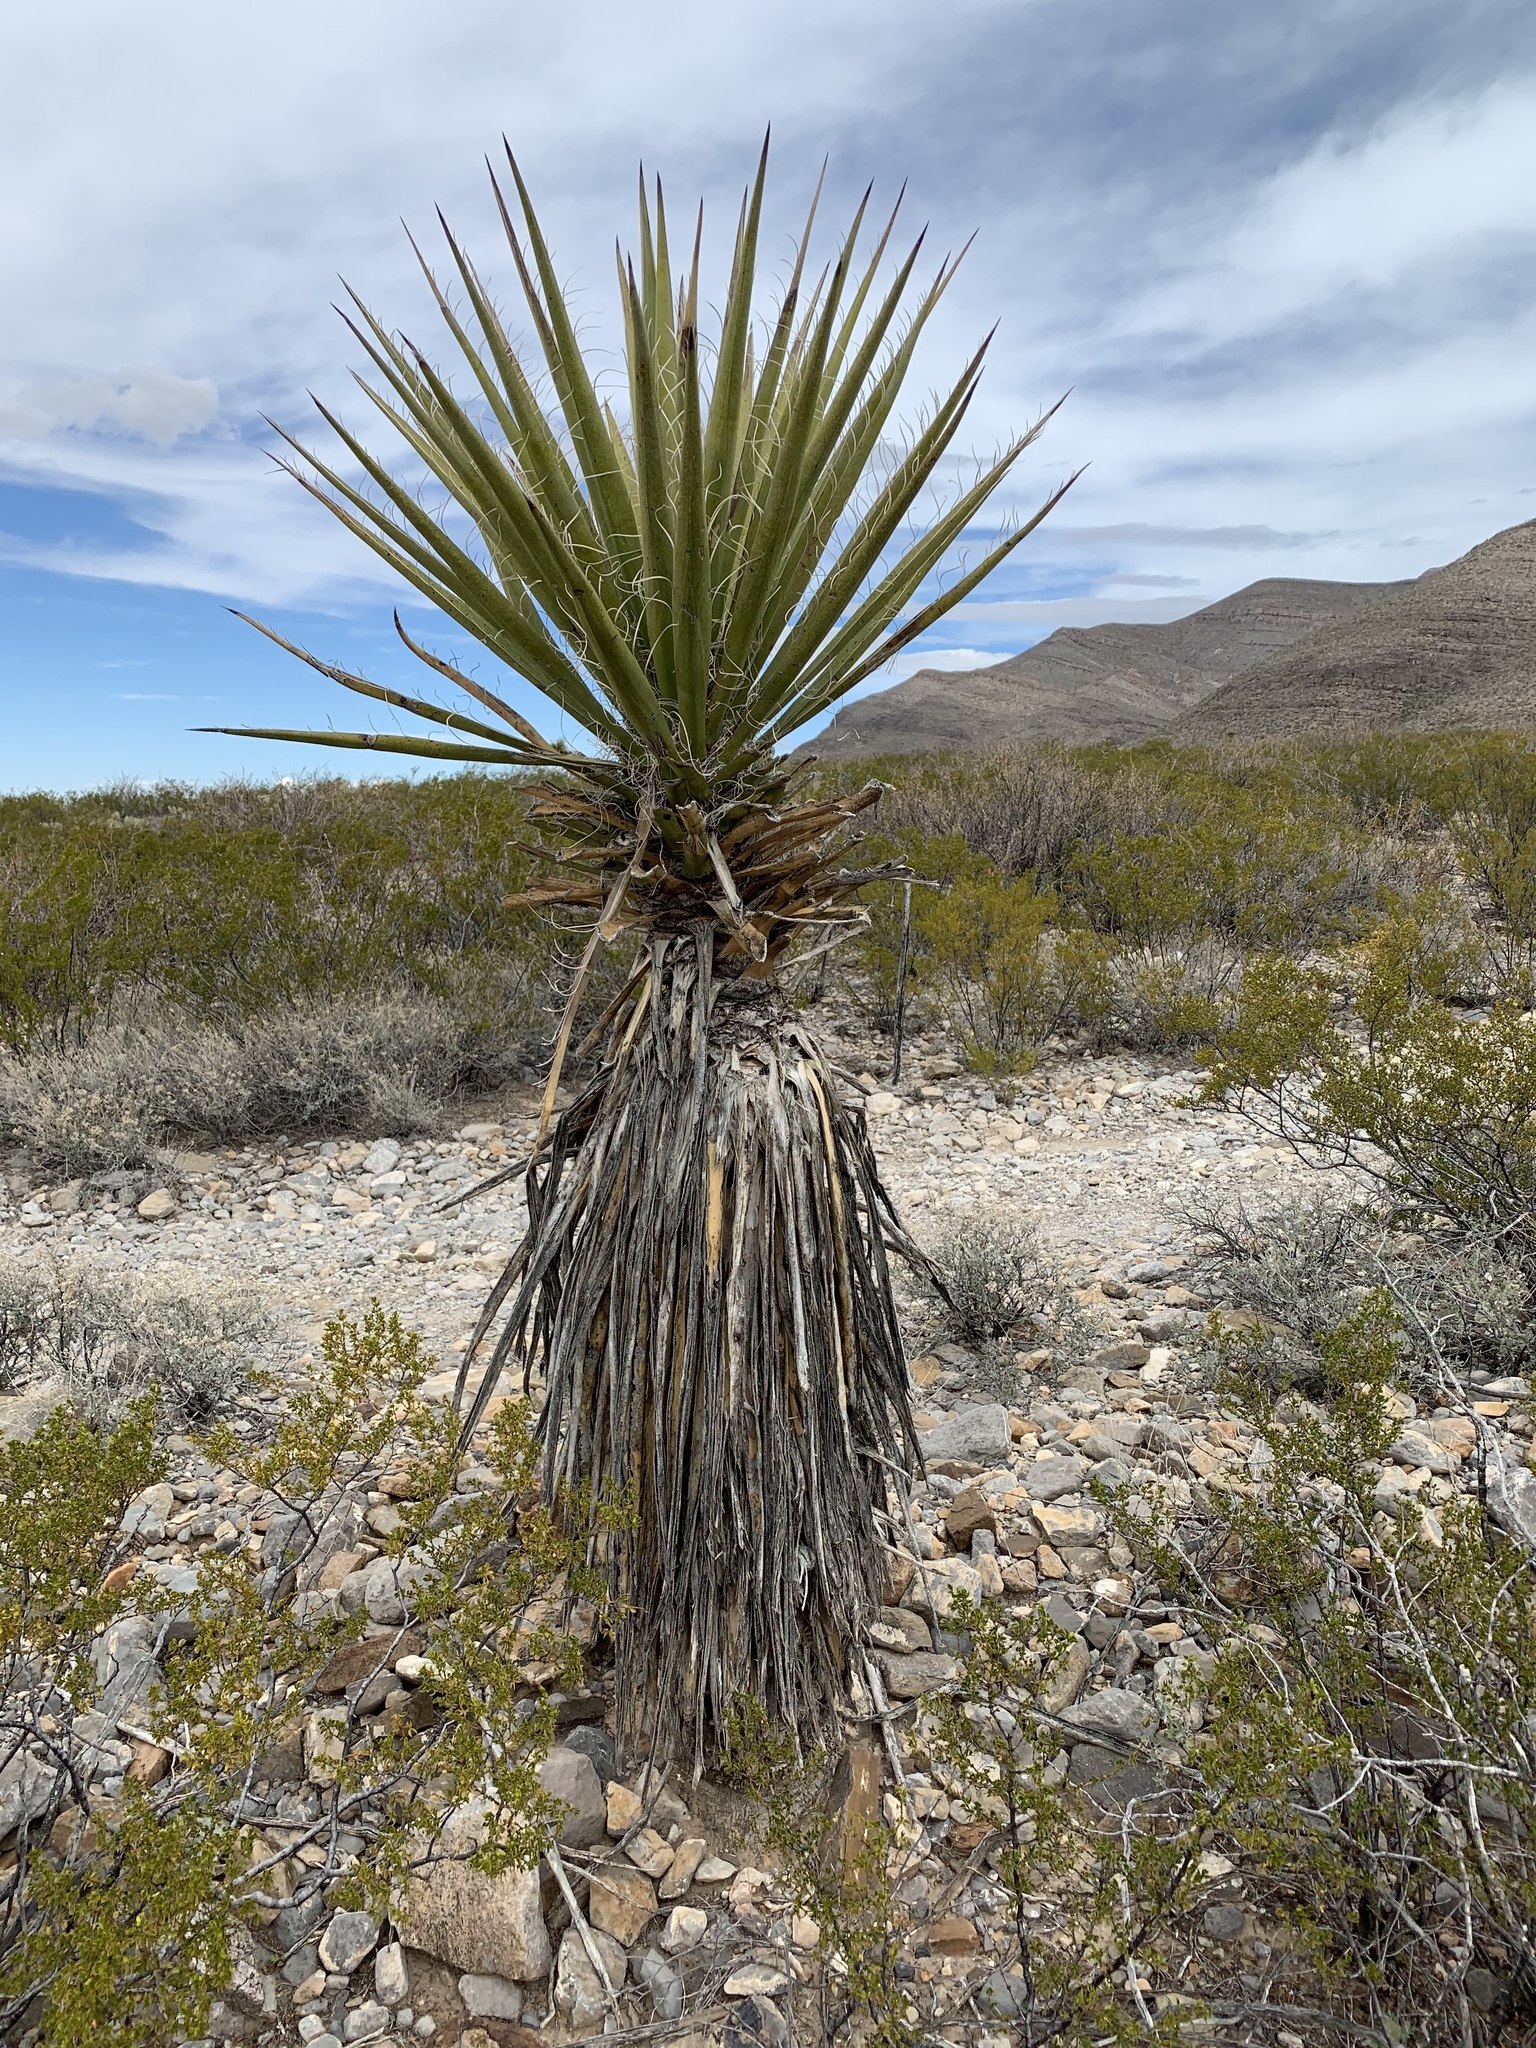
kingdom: Plantae
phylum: Tracheophyta
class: Liliopsida
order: Asparagales
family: Asparagaceae
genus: Yucca
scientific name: Yucca treculiana
